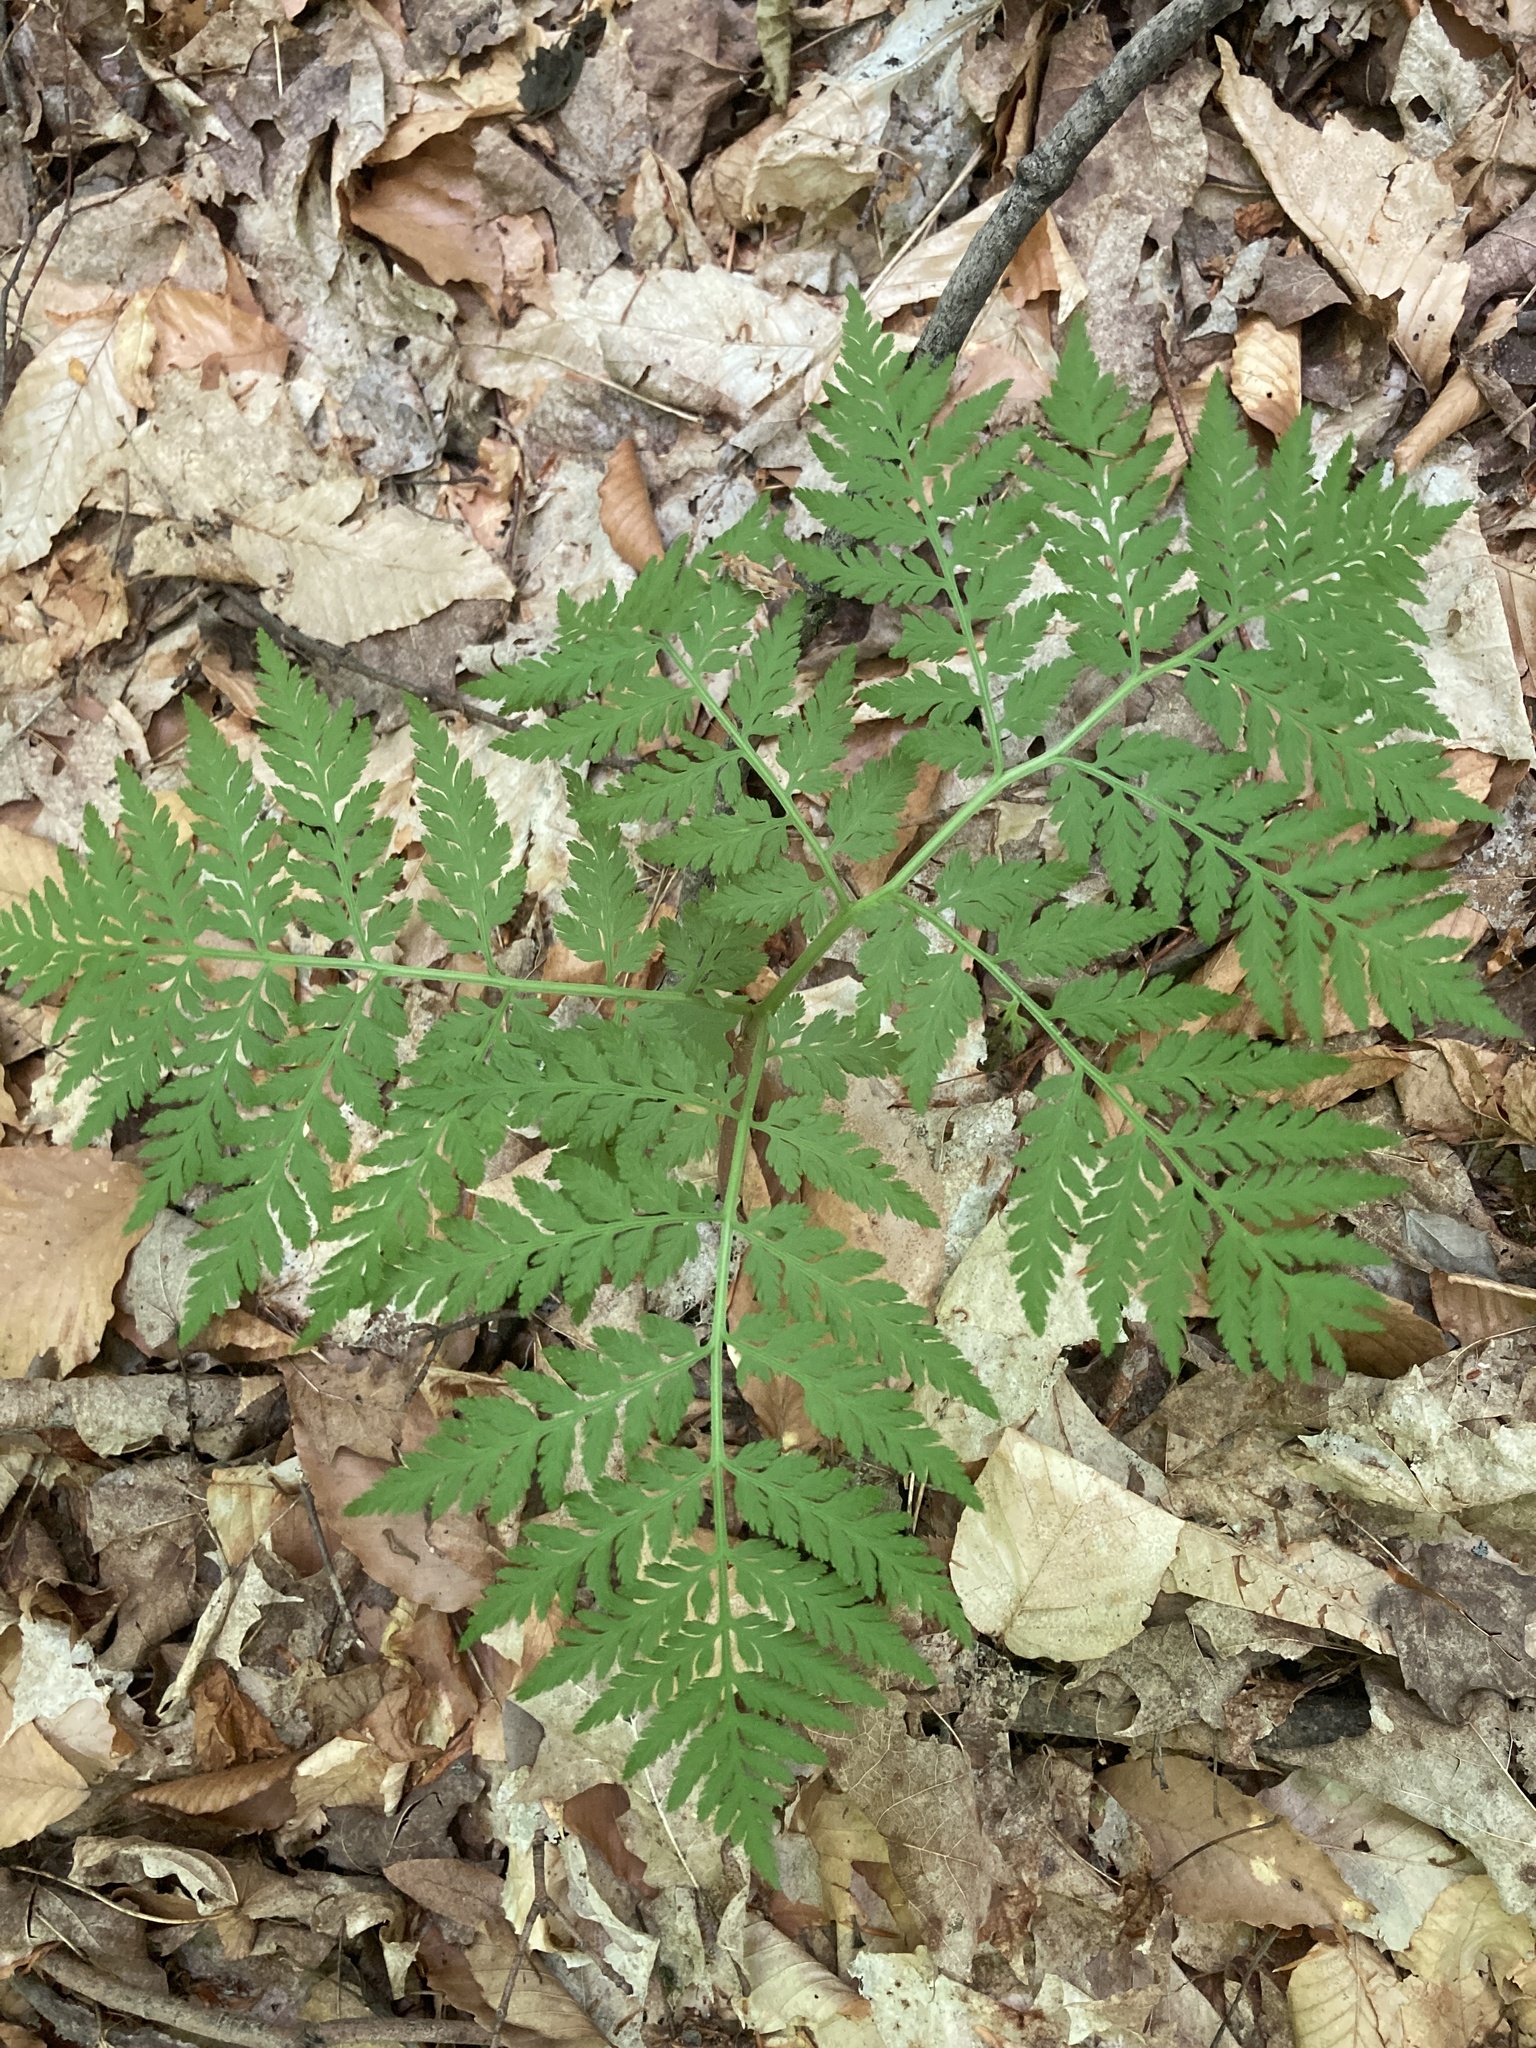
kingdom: Plantae
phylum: Tracheophyta
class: Polypodiopsida
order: Ophioglossales
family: Ophioglossaceae
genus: Botrypus
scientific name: Botrypus virginianus
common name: Common grapefern
